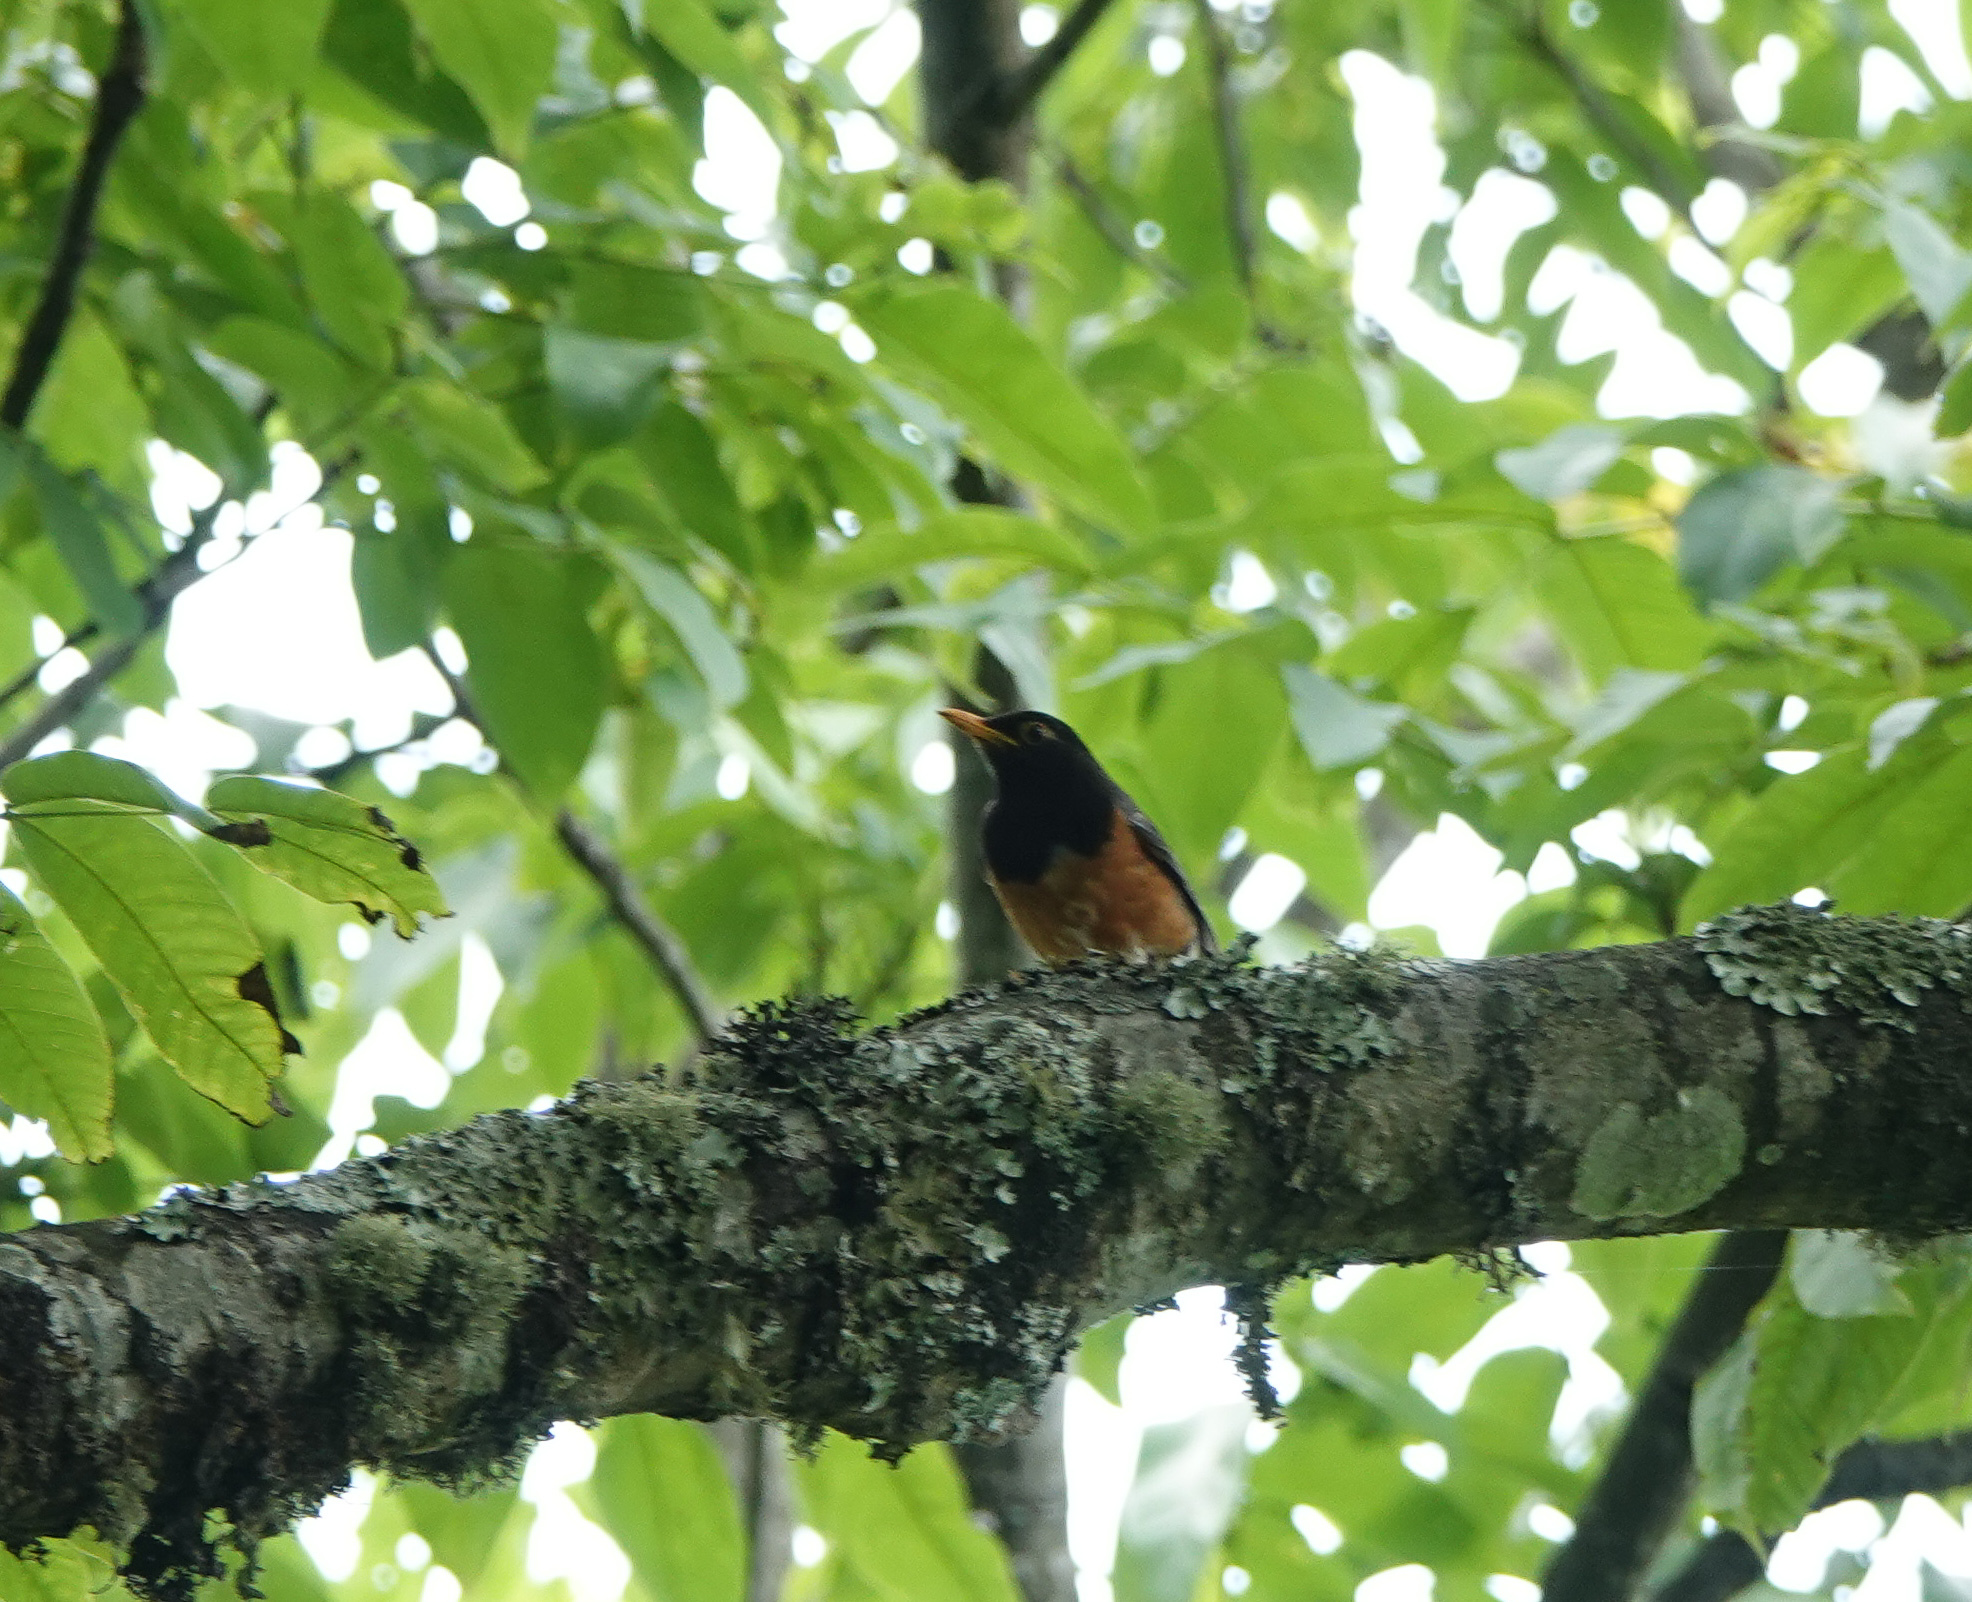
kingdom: Animalia
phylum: Chordata
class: Aves
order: Passeriformes
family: Turdidae
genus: Turdus
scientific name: Turdus dissimilis
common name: Black-breasted thrush
